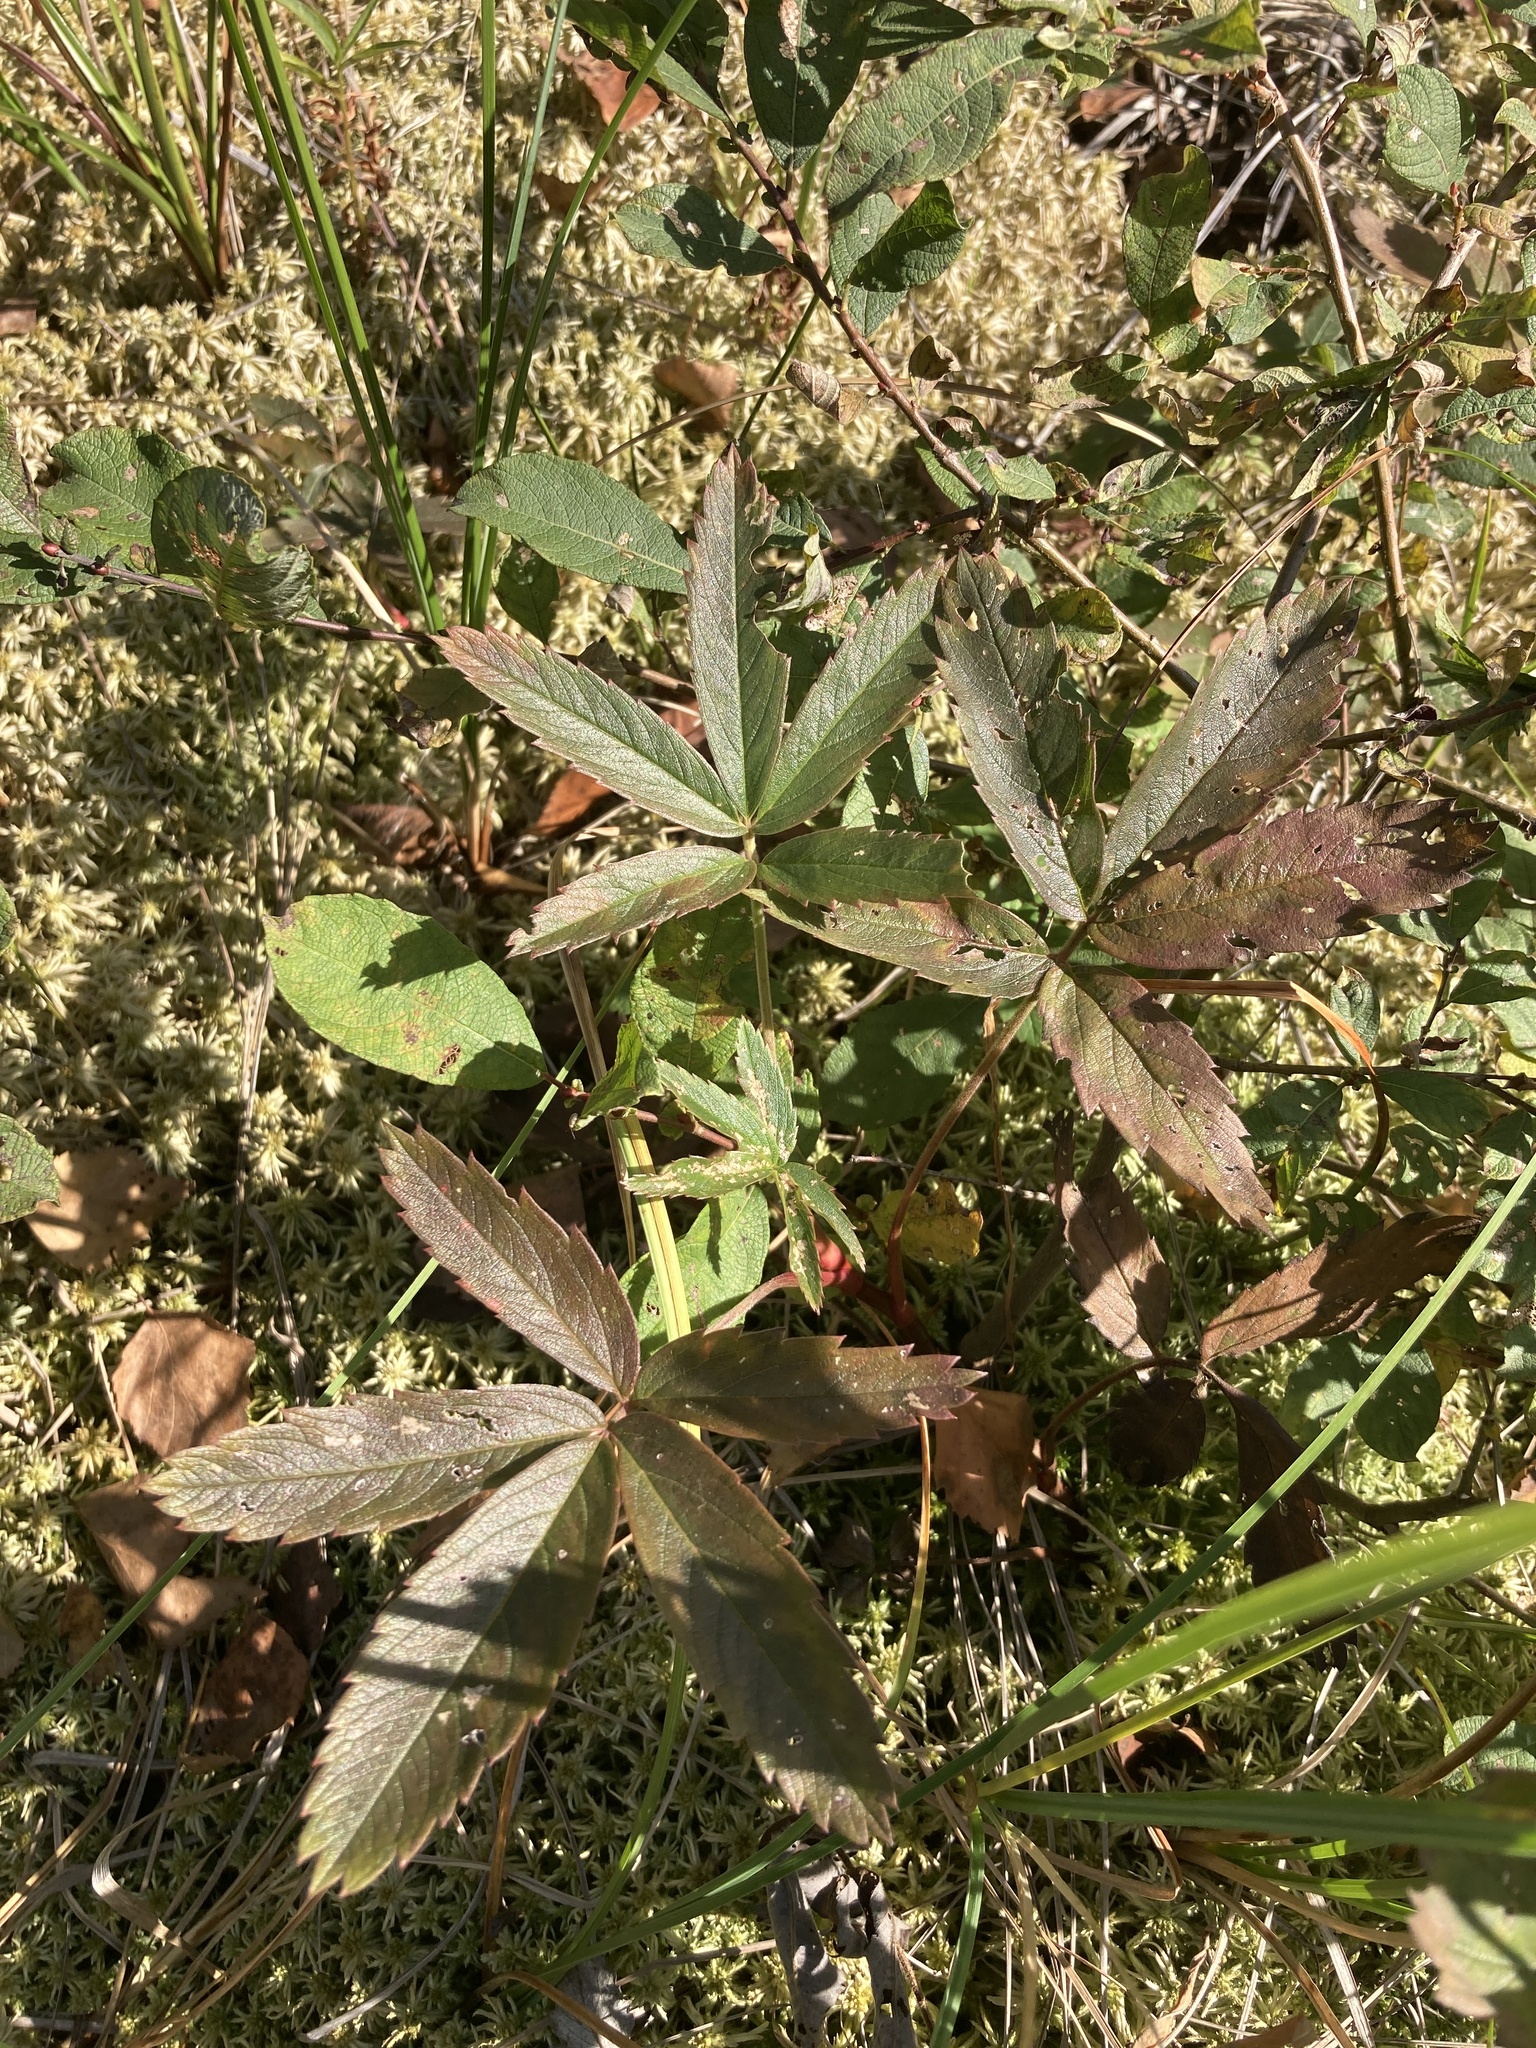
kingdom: Plantae
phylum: Tracheophyta
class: Magnoliopsida
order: Rosales
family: Rosaceae
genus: Comarum
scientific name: Comarum palustre
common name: Marsh cinquefoil
